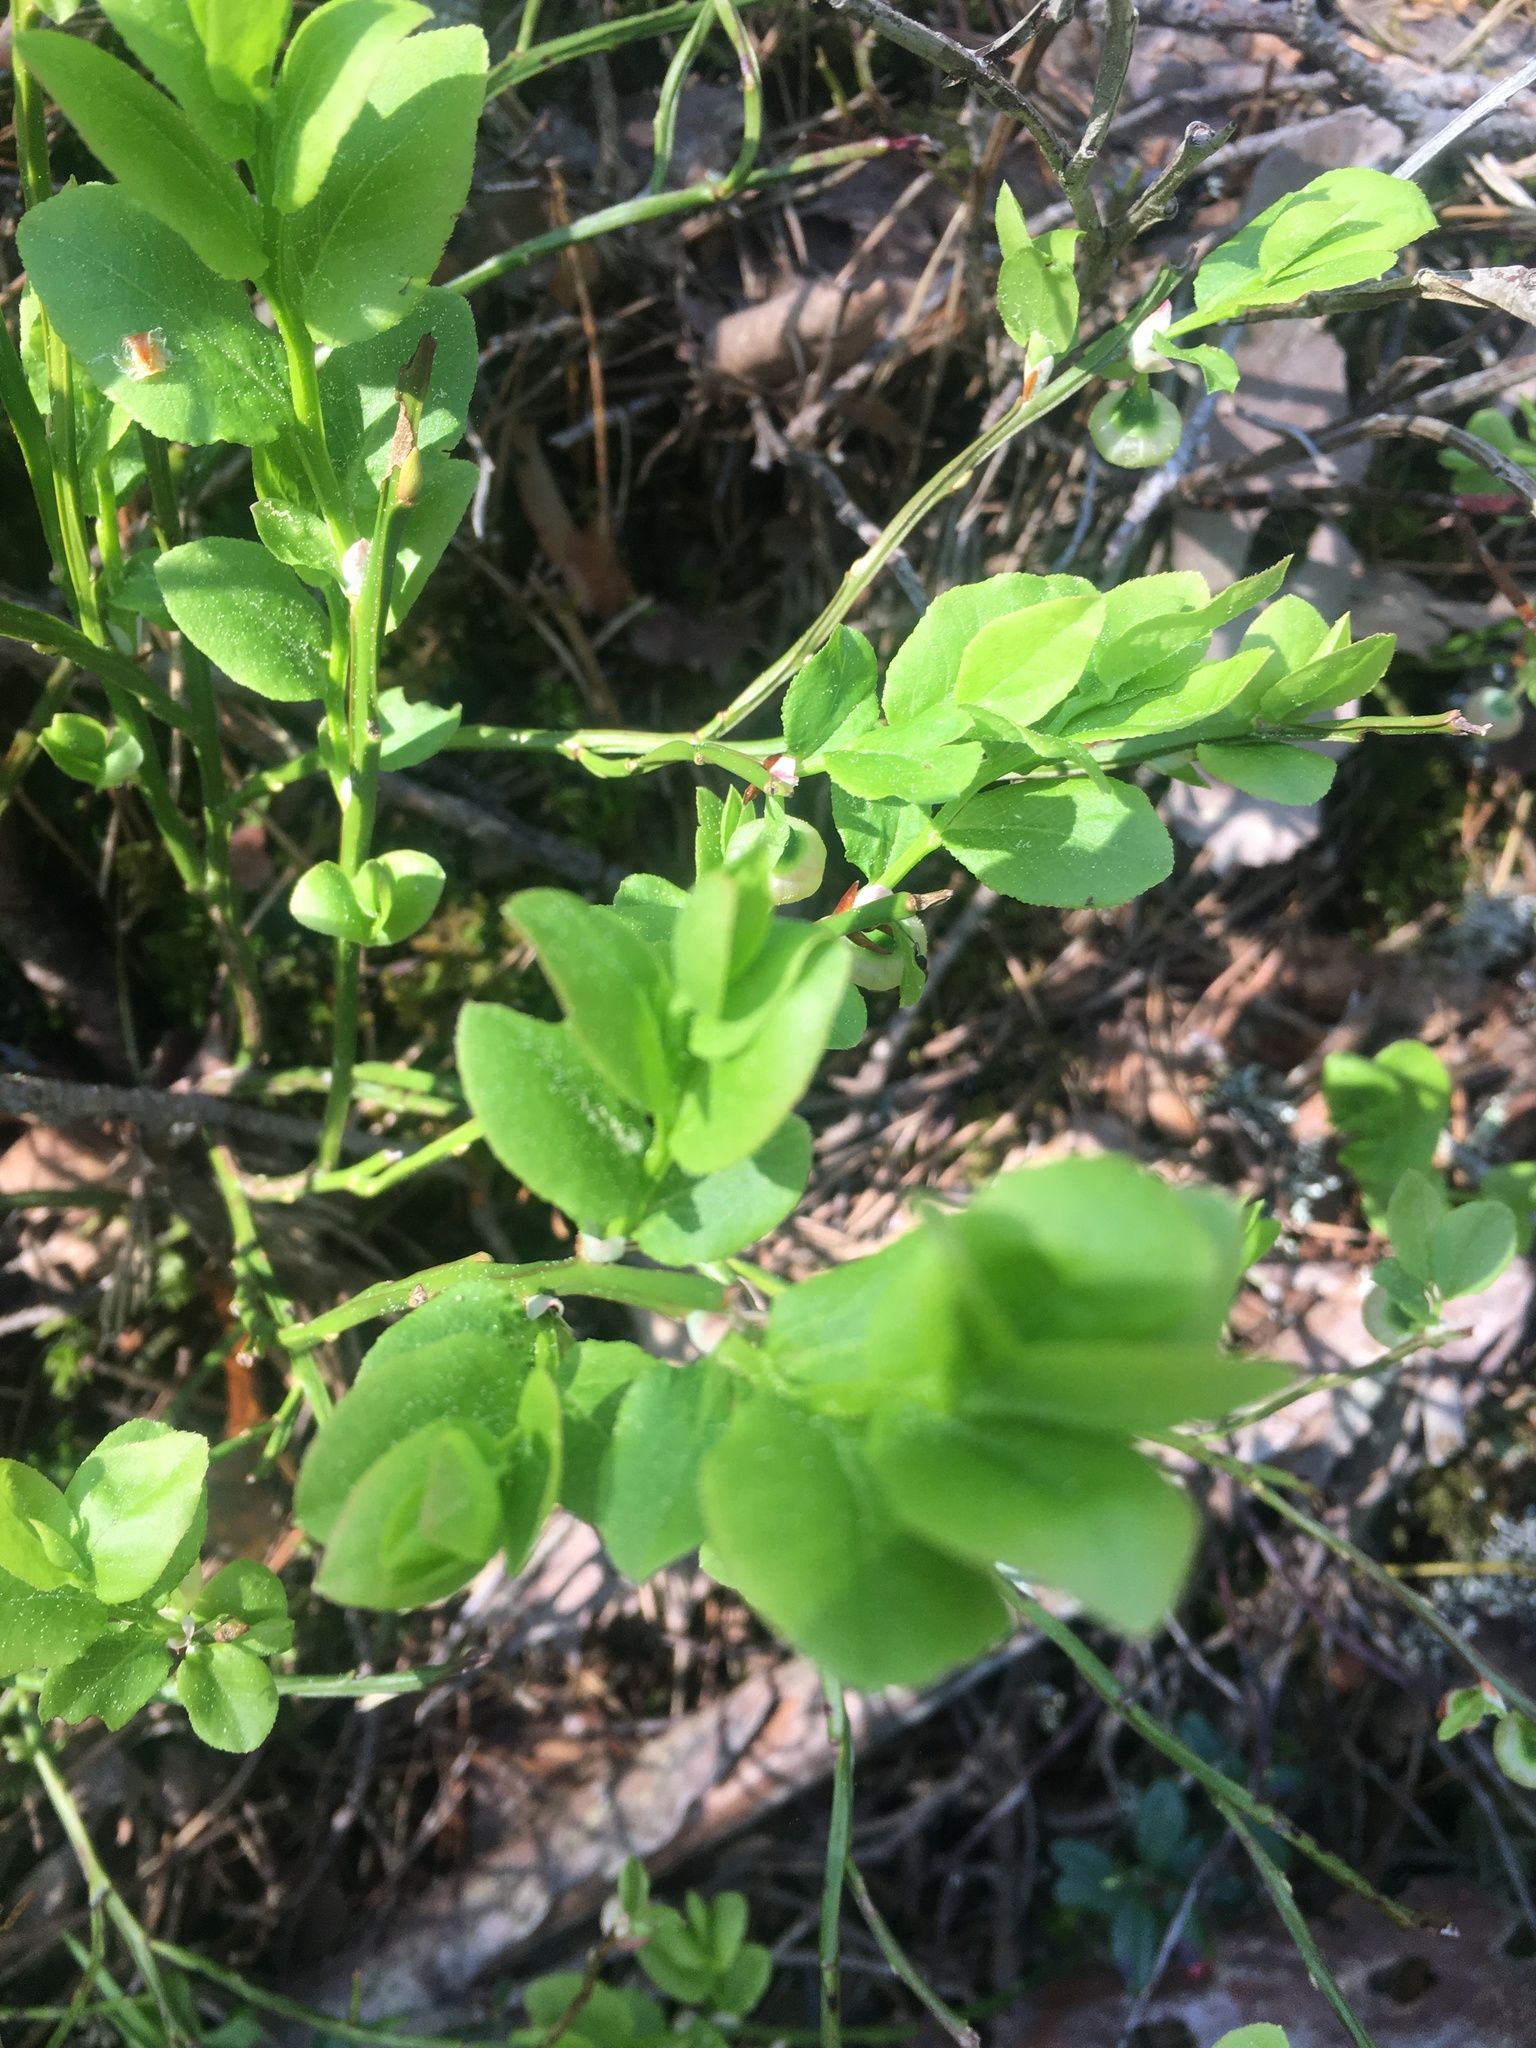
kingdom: Plantae
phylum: Tracheophyta
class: Magnoliopsida
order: Ericales
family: Ericaceae
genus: Vaccinium
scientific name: Vaccinium myrtillus
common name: Bilberry
